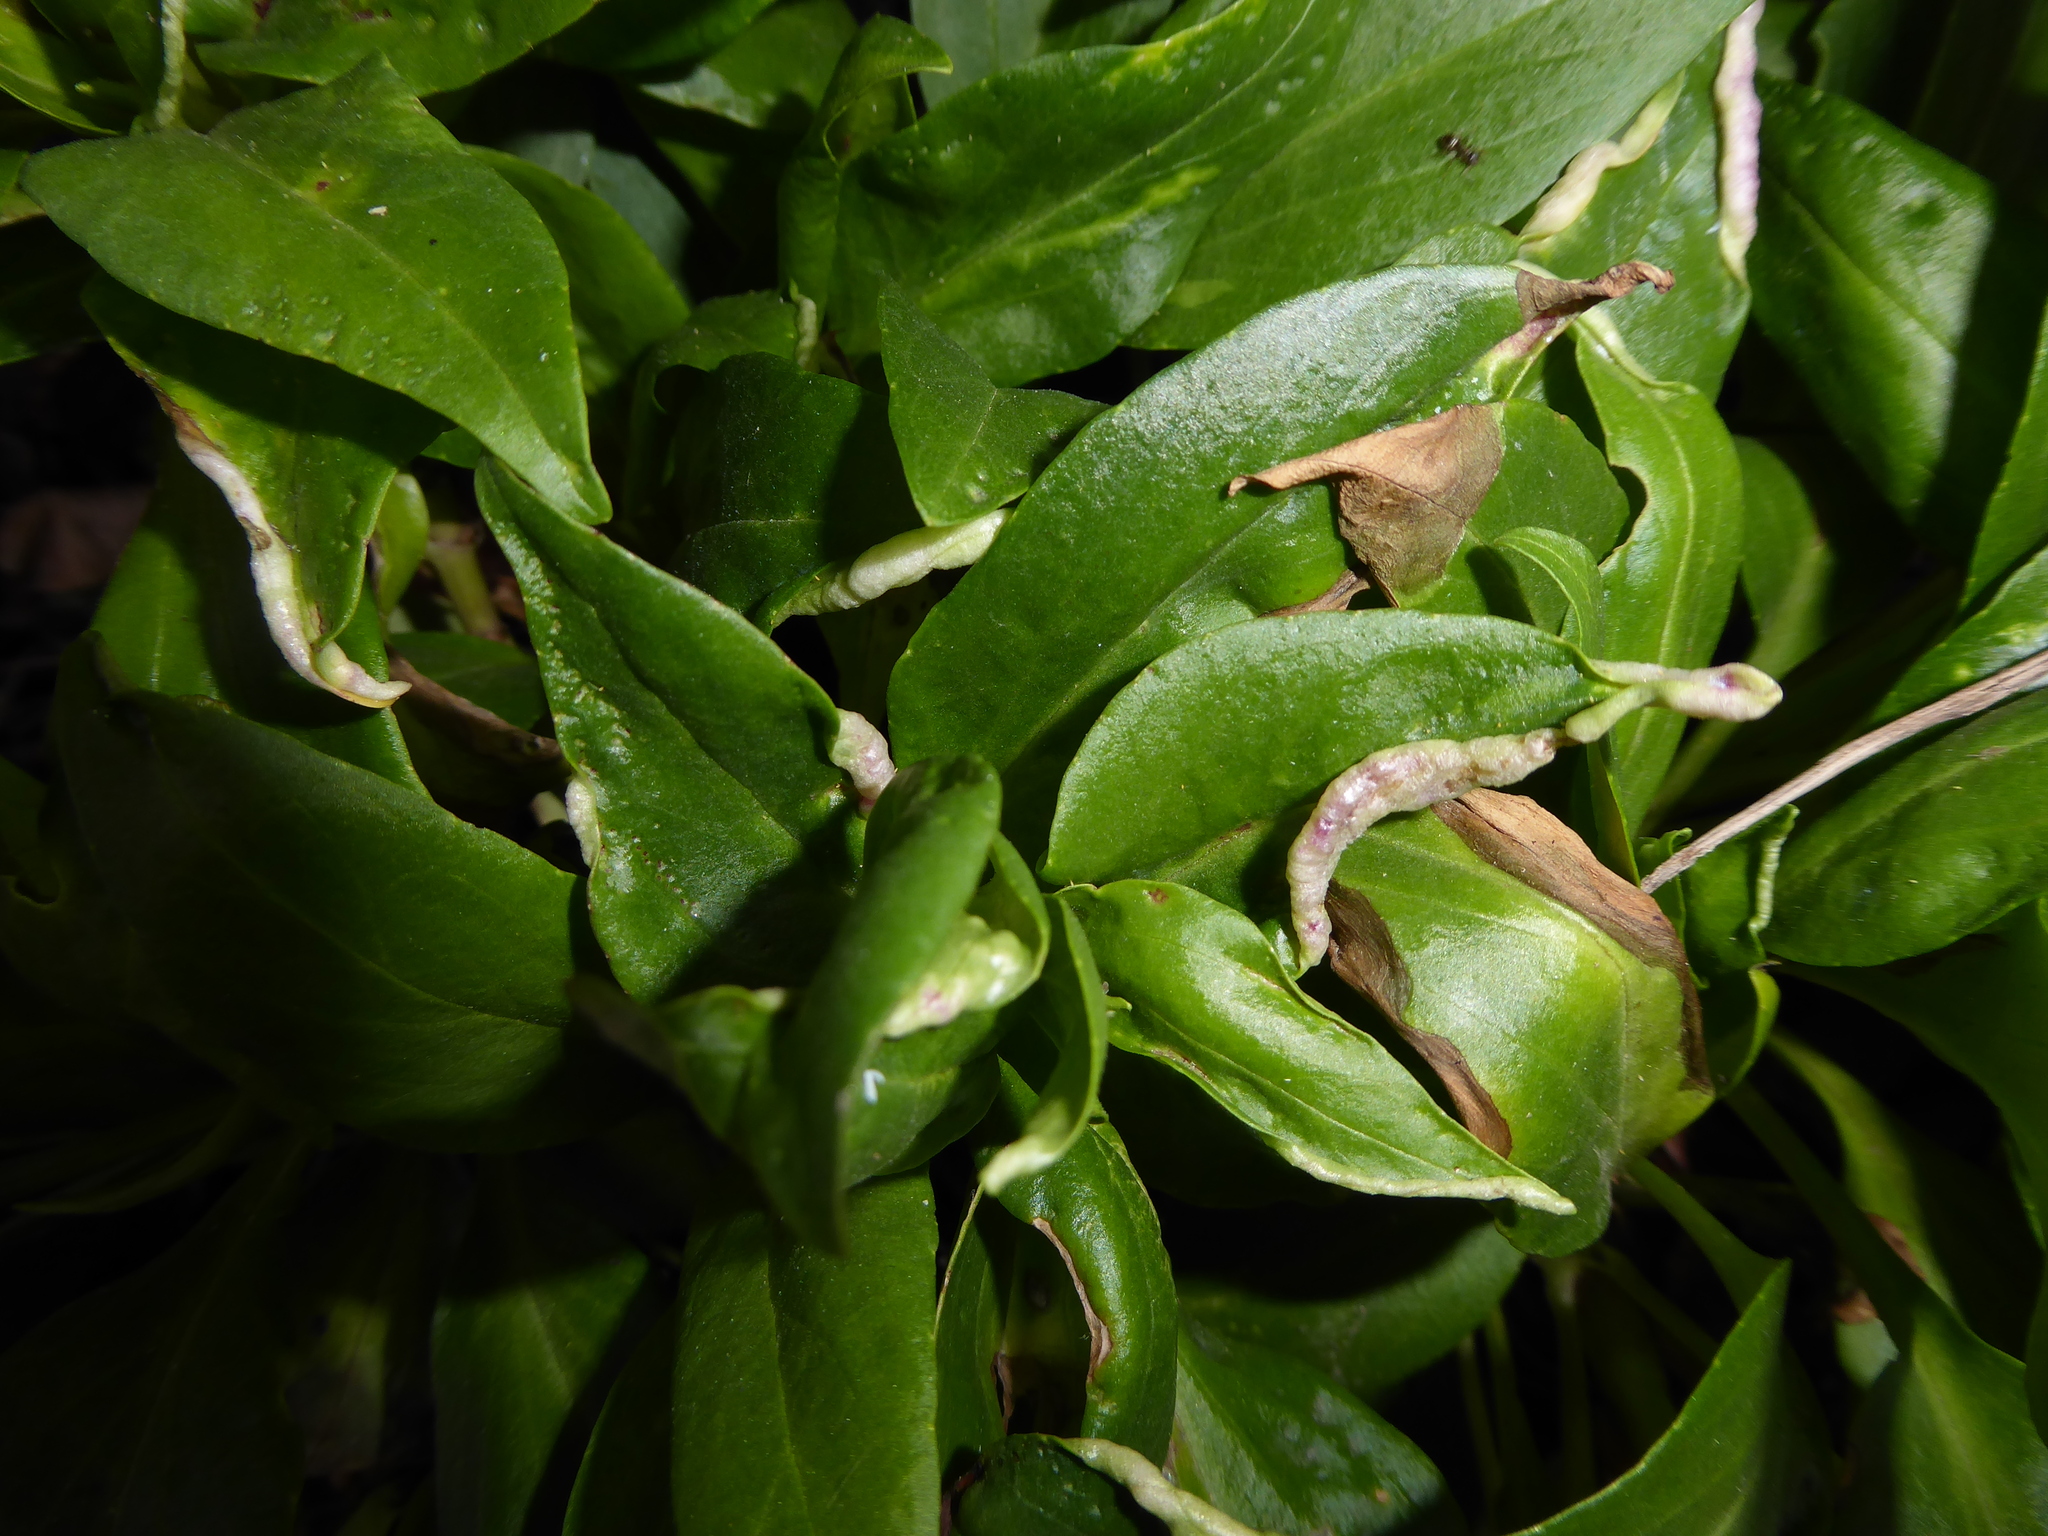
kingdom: Plantae
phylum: Tracheophyta
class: Magnoliopsida
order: Dipsacales
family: Caprifoliaceae
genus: Centranthus
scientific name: Centranthus ruber
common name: Red valerian
